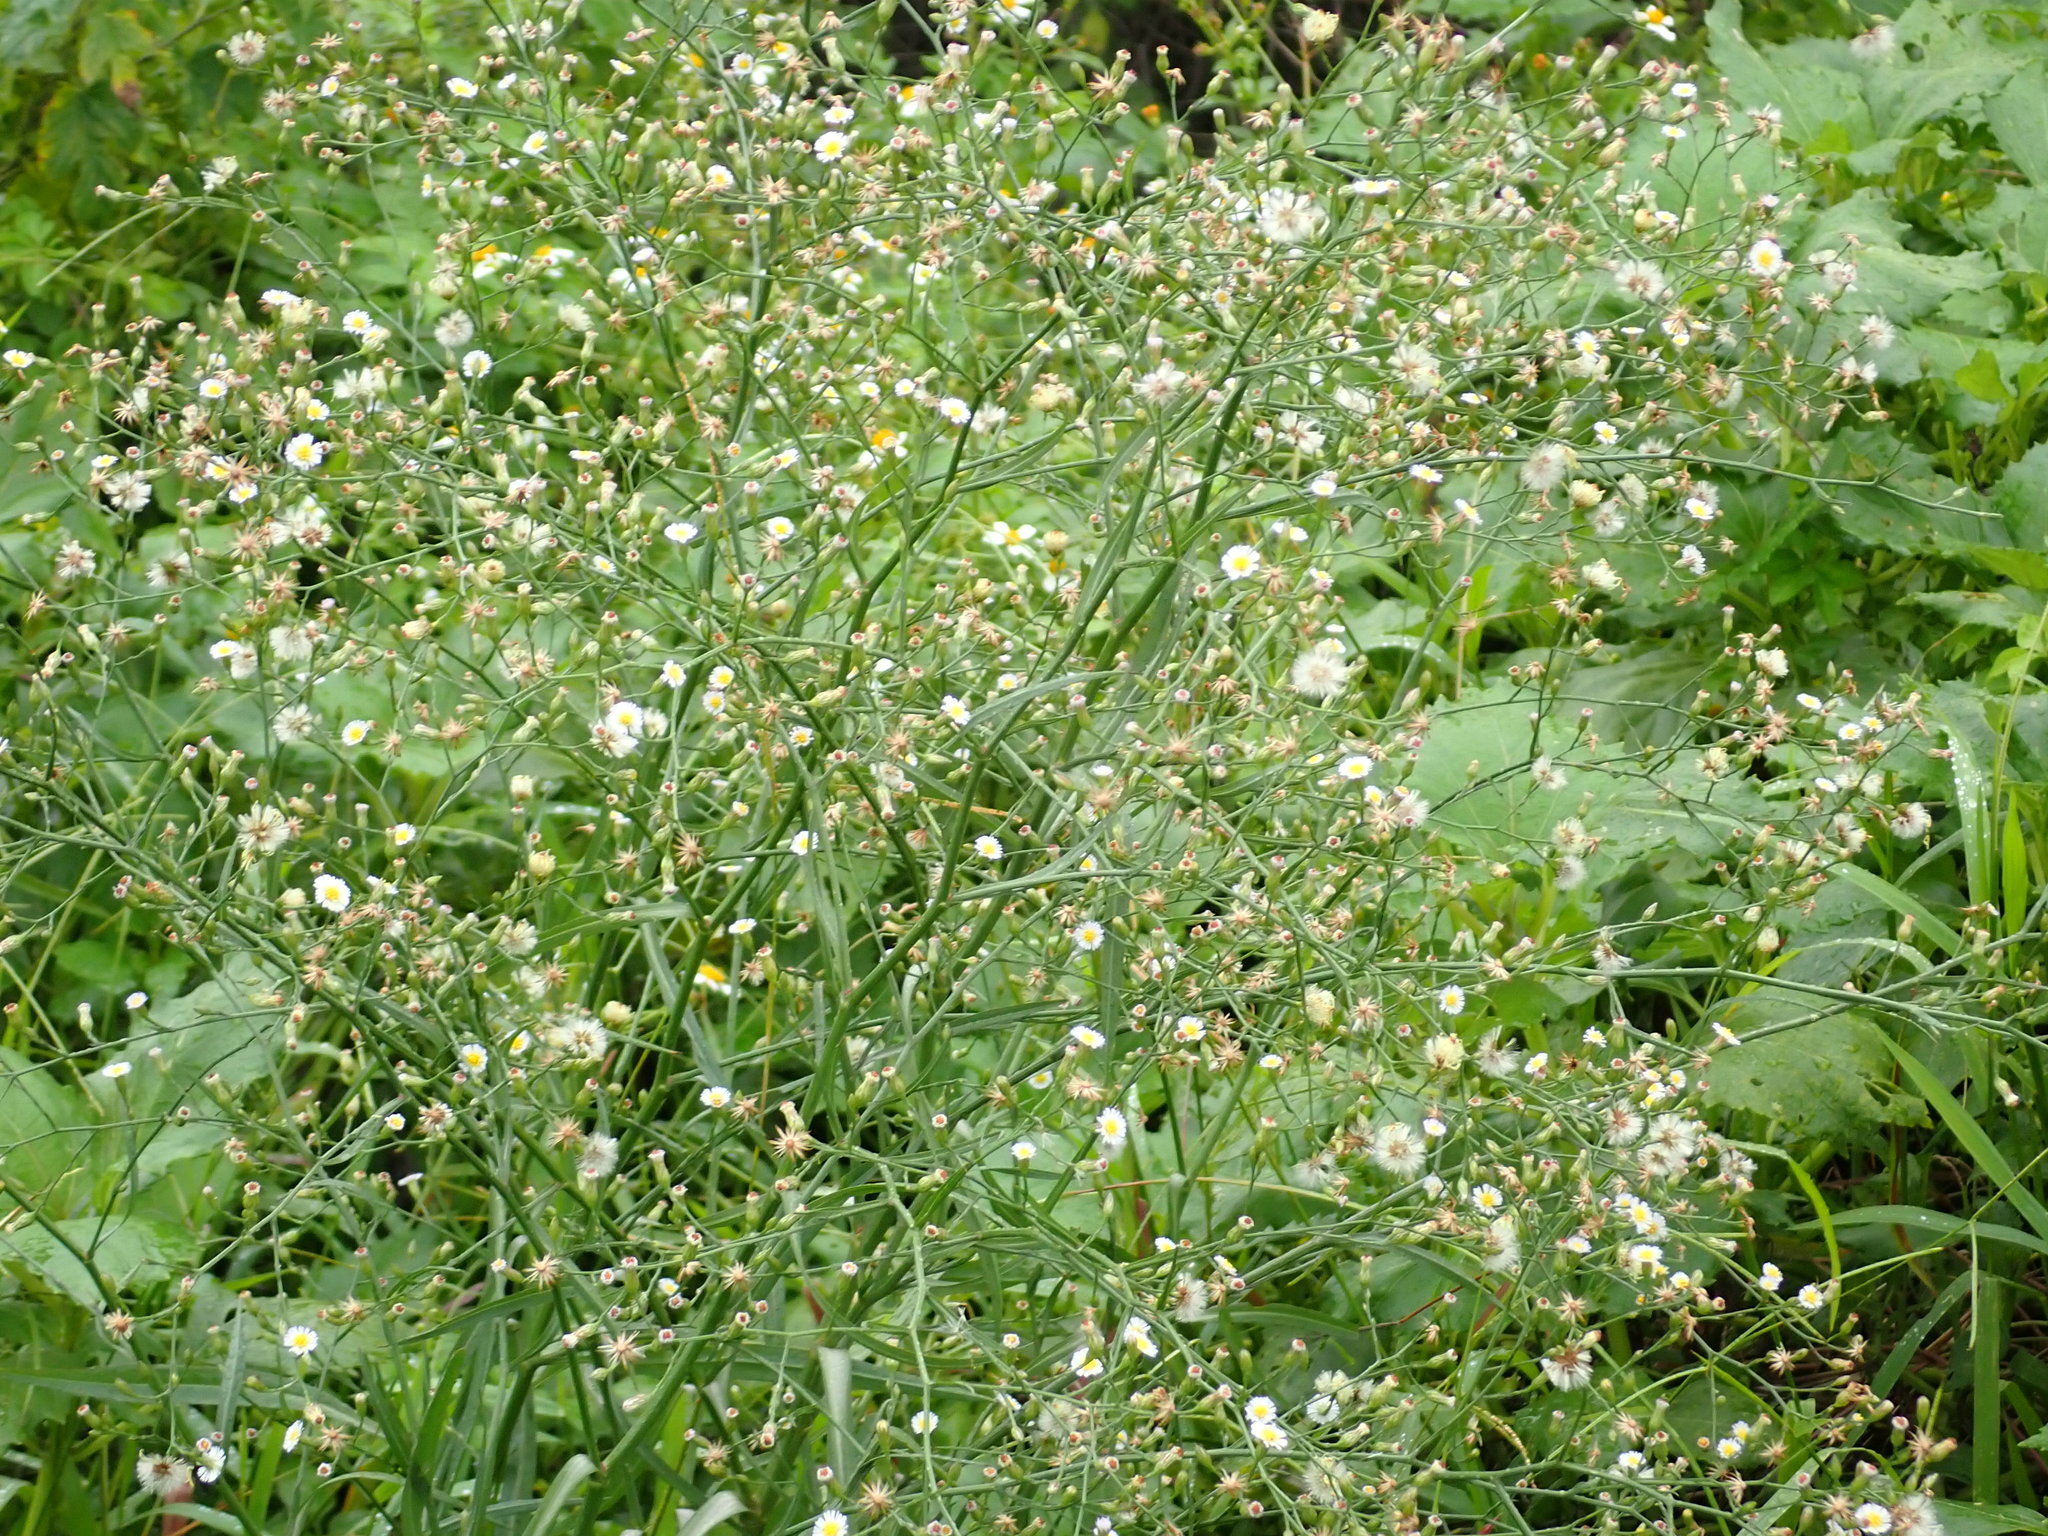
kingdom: Plantae
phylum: Tracheophyta
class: Magnoliopsida
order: Asterales
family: Asteraceae
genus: Symphyotrichum
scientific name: Symphyotrichum subulatum
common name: Annual saltmarsh aster
